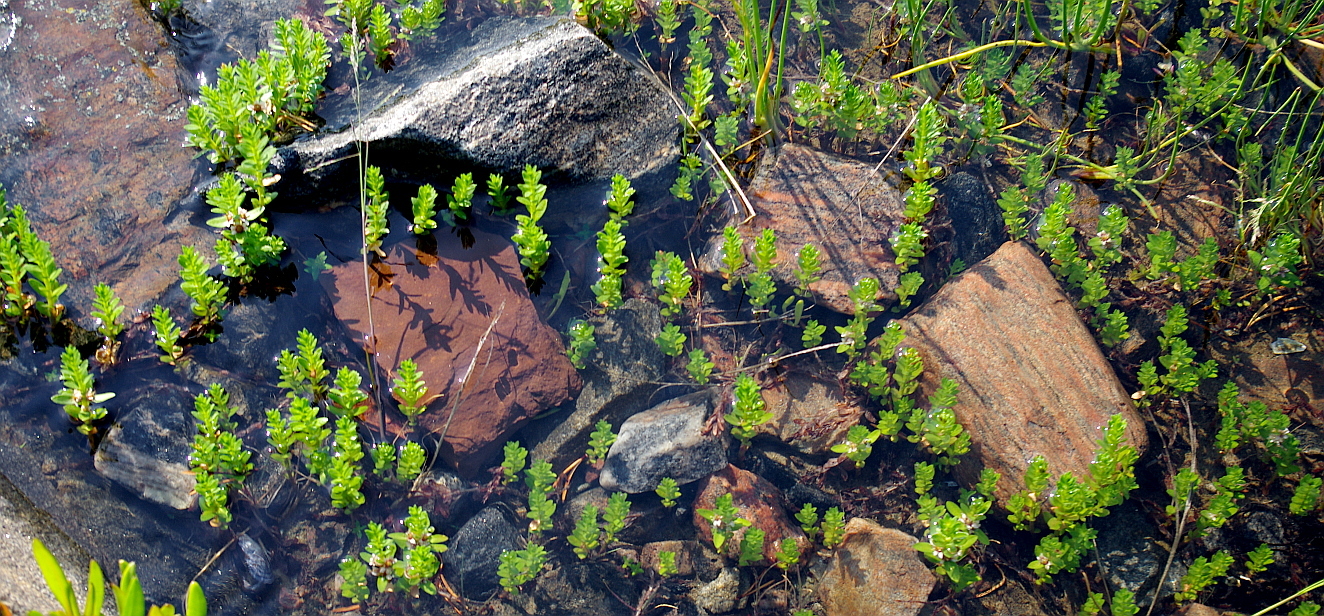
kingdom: Plantae
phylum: Tracheophyta
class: Magnoliopsida
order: Ericales
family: Primulaceae
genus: Lysimachia
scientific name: Lysimachia maritima
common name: Sea milkwort
